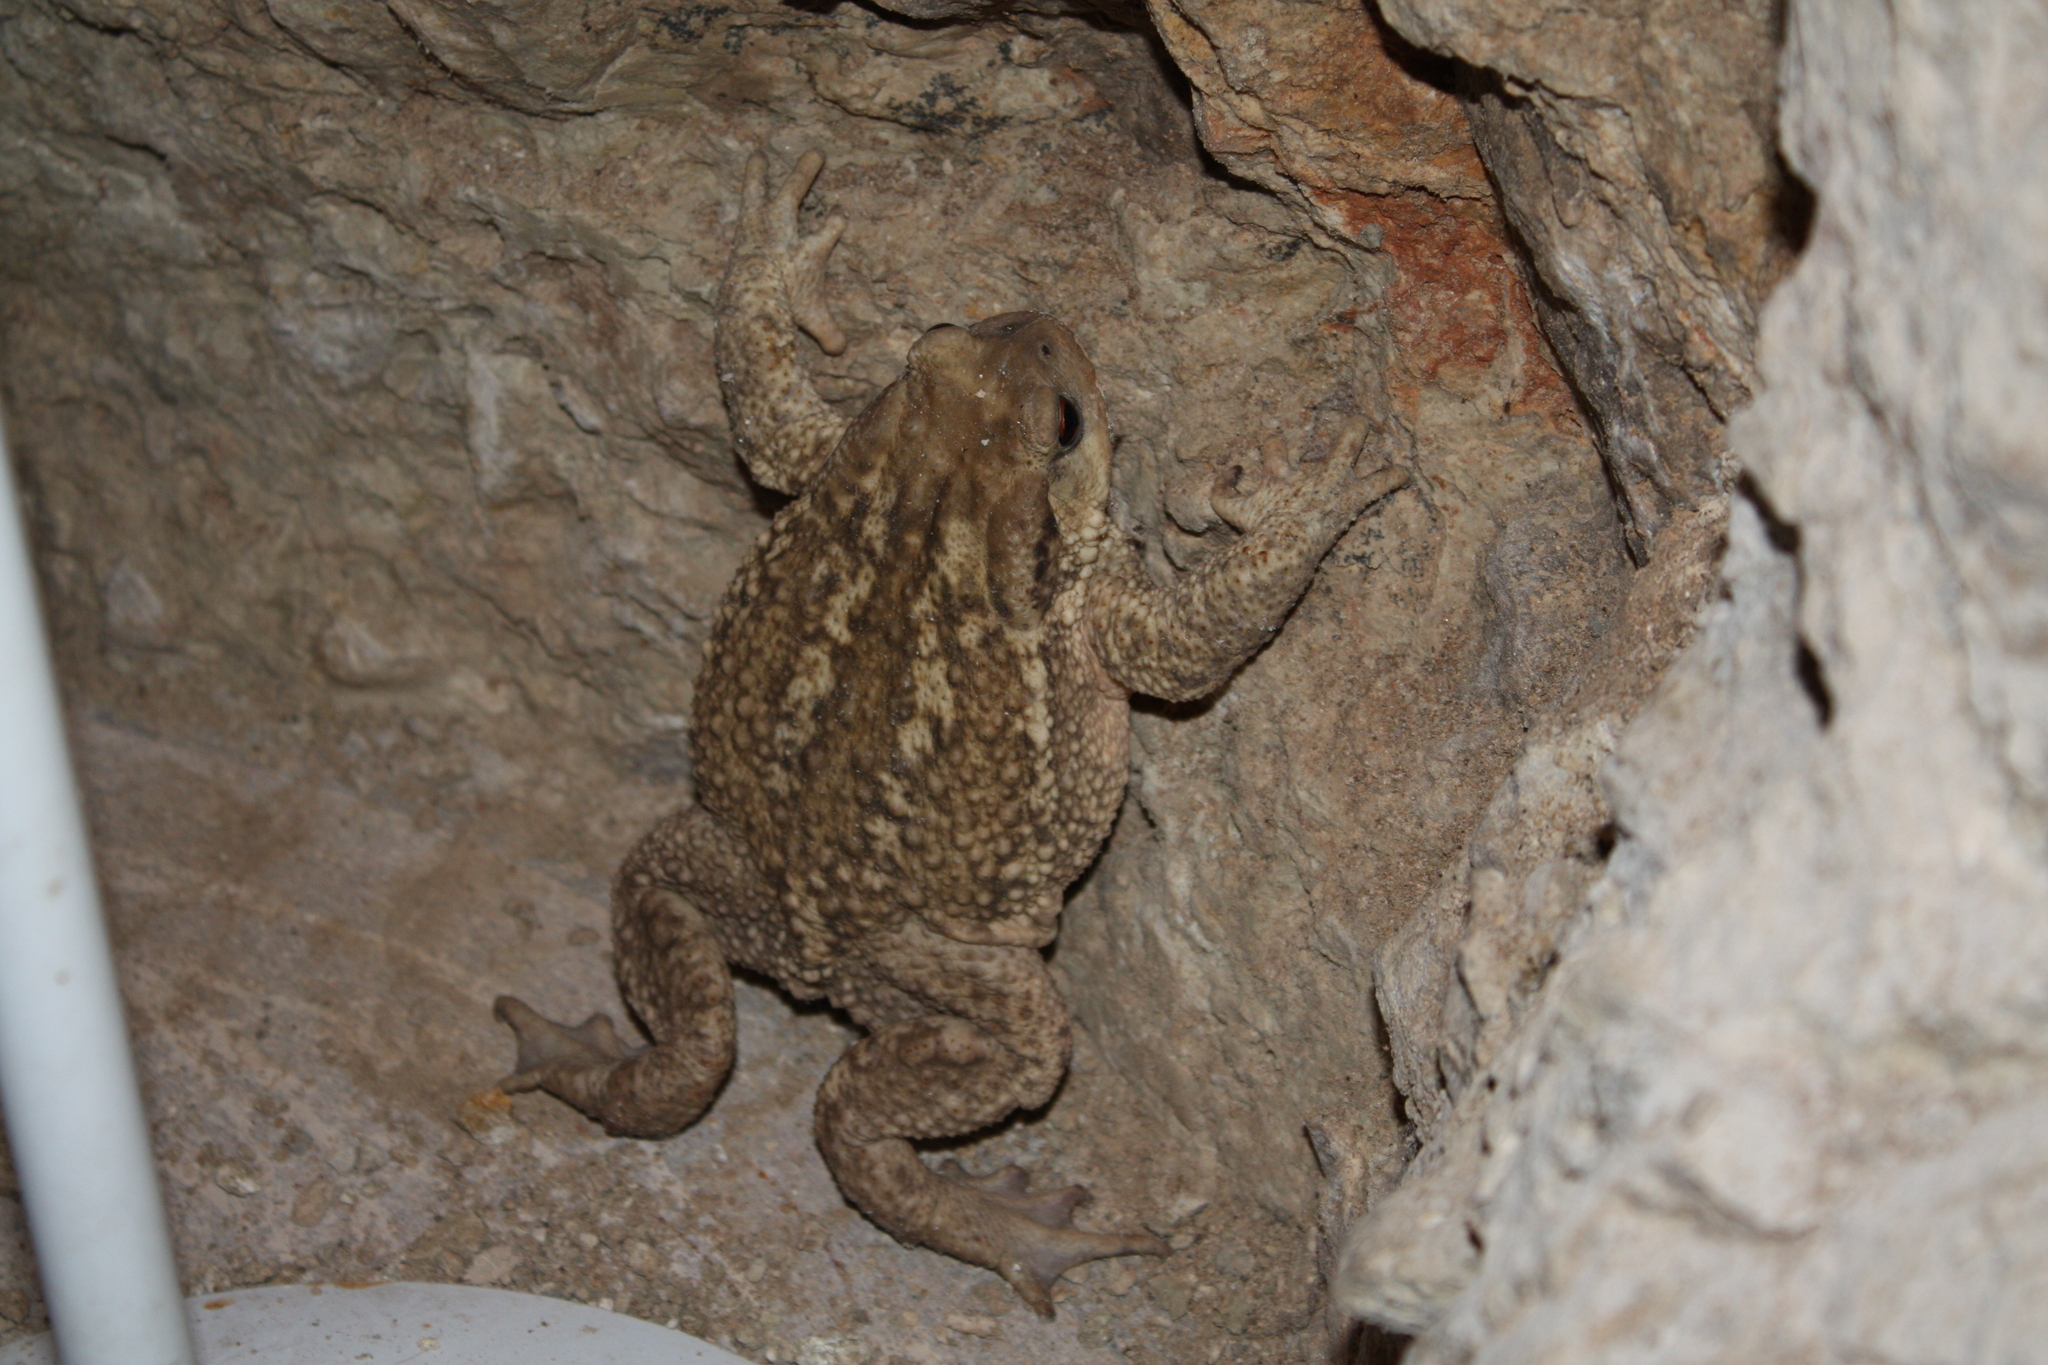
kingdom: Animalia
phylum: Chordata
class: Amphibia
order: Anura
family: Bufonidae
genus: Bufo
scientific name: Bufo spinosus
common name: Western common toad
